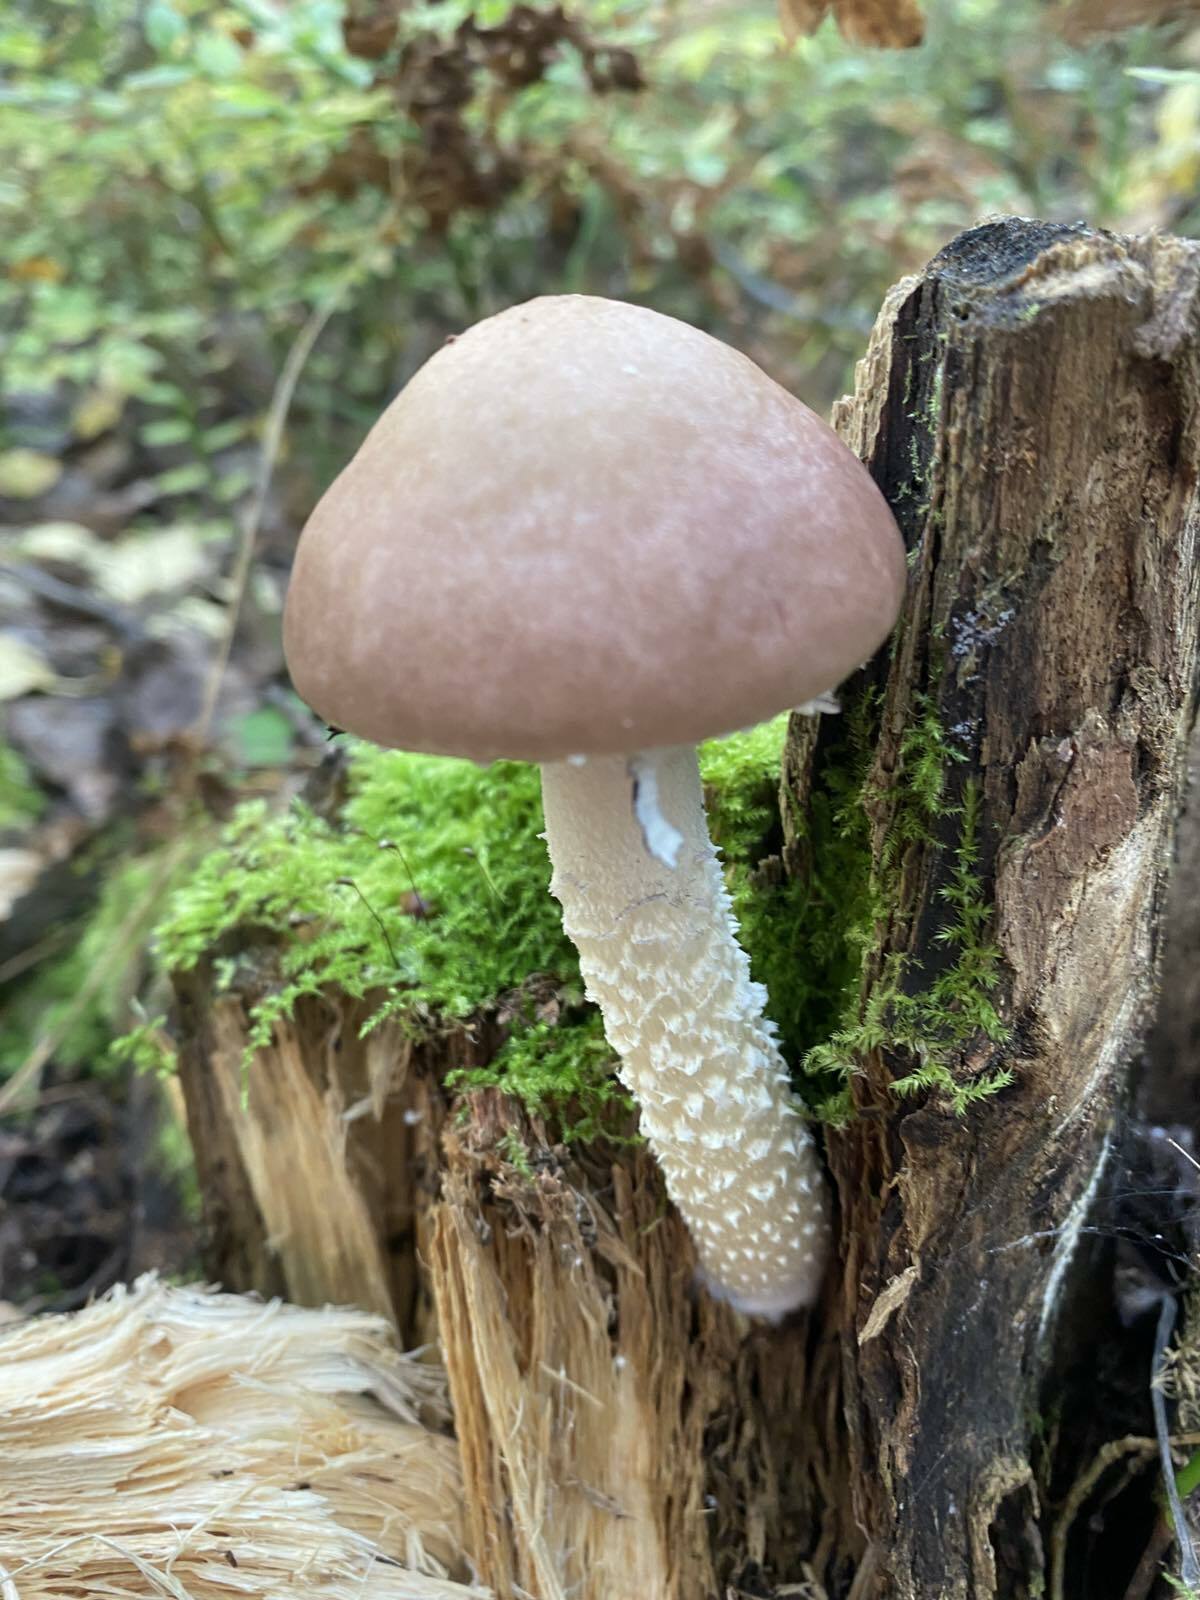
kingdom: Fungi
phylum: Basidiomycota
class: Agaricomycetes
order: Agaricales
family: Strophariaceae
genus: Stropharia
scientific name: Stropharia hornemannii
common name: Conifer roundhead
